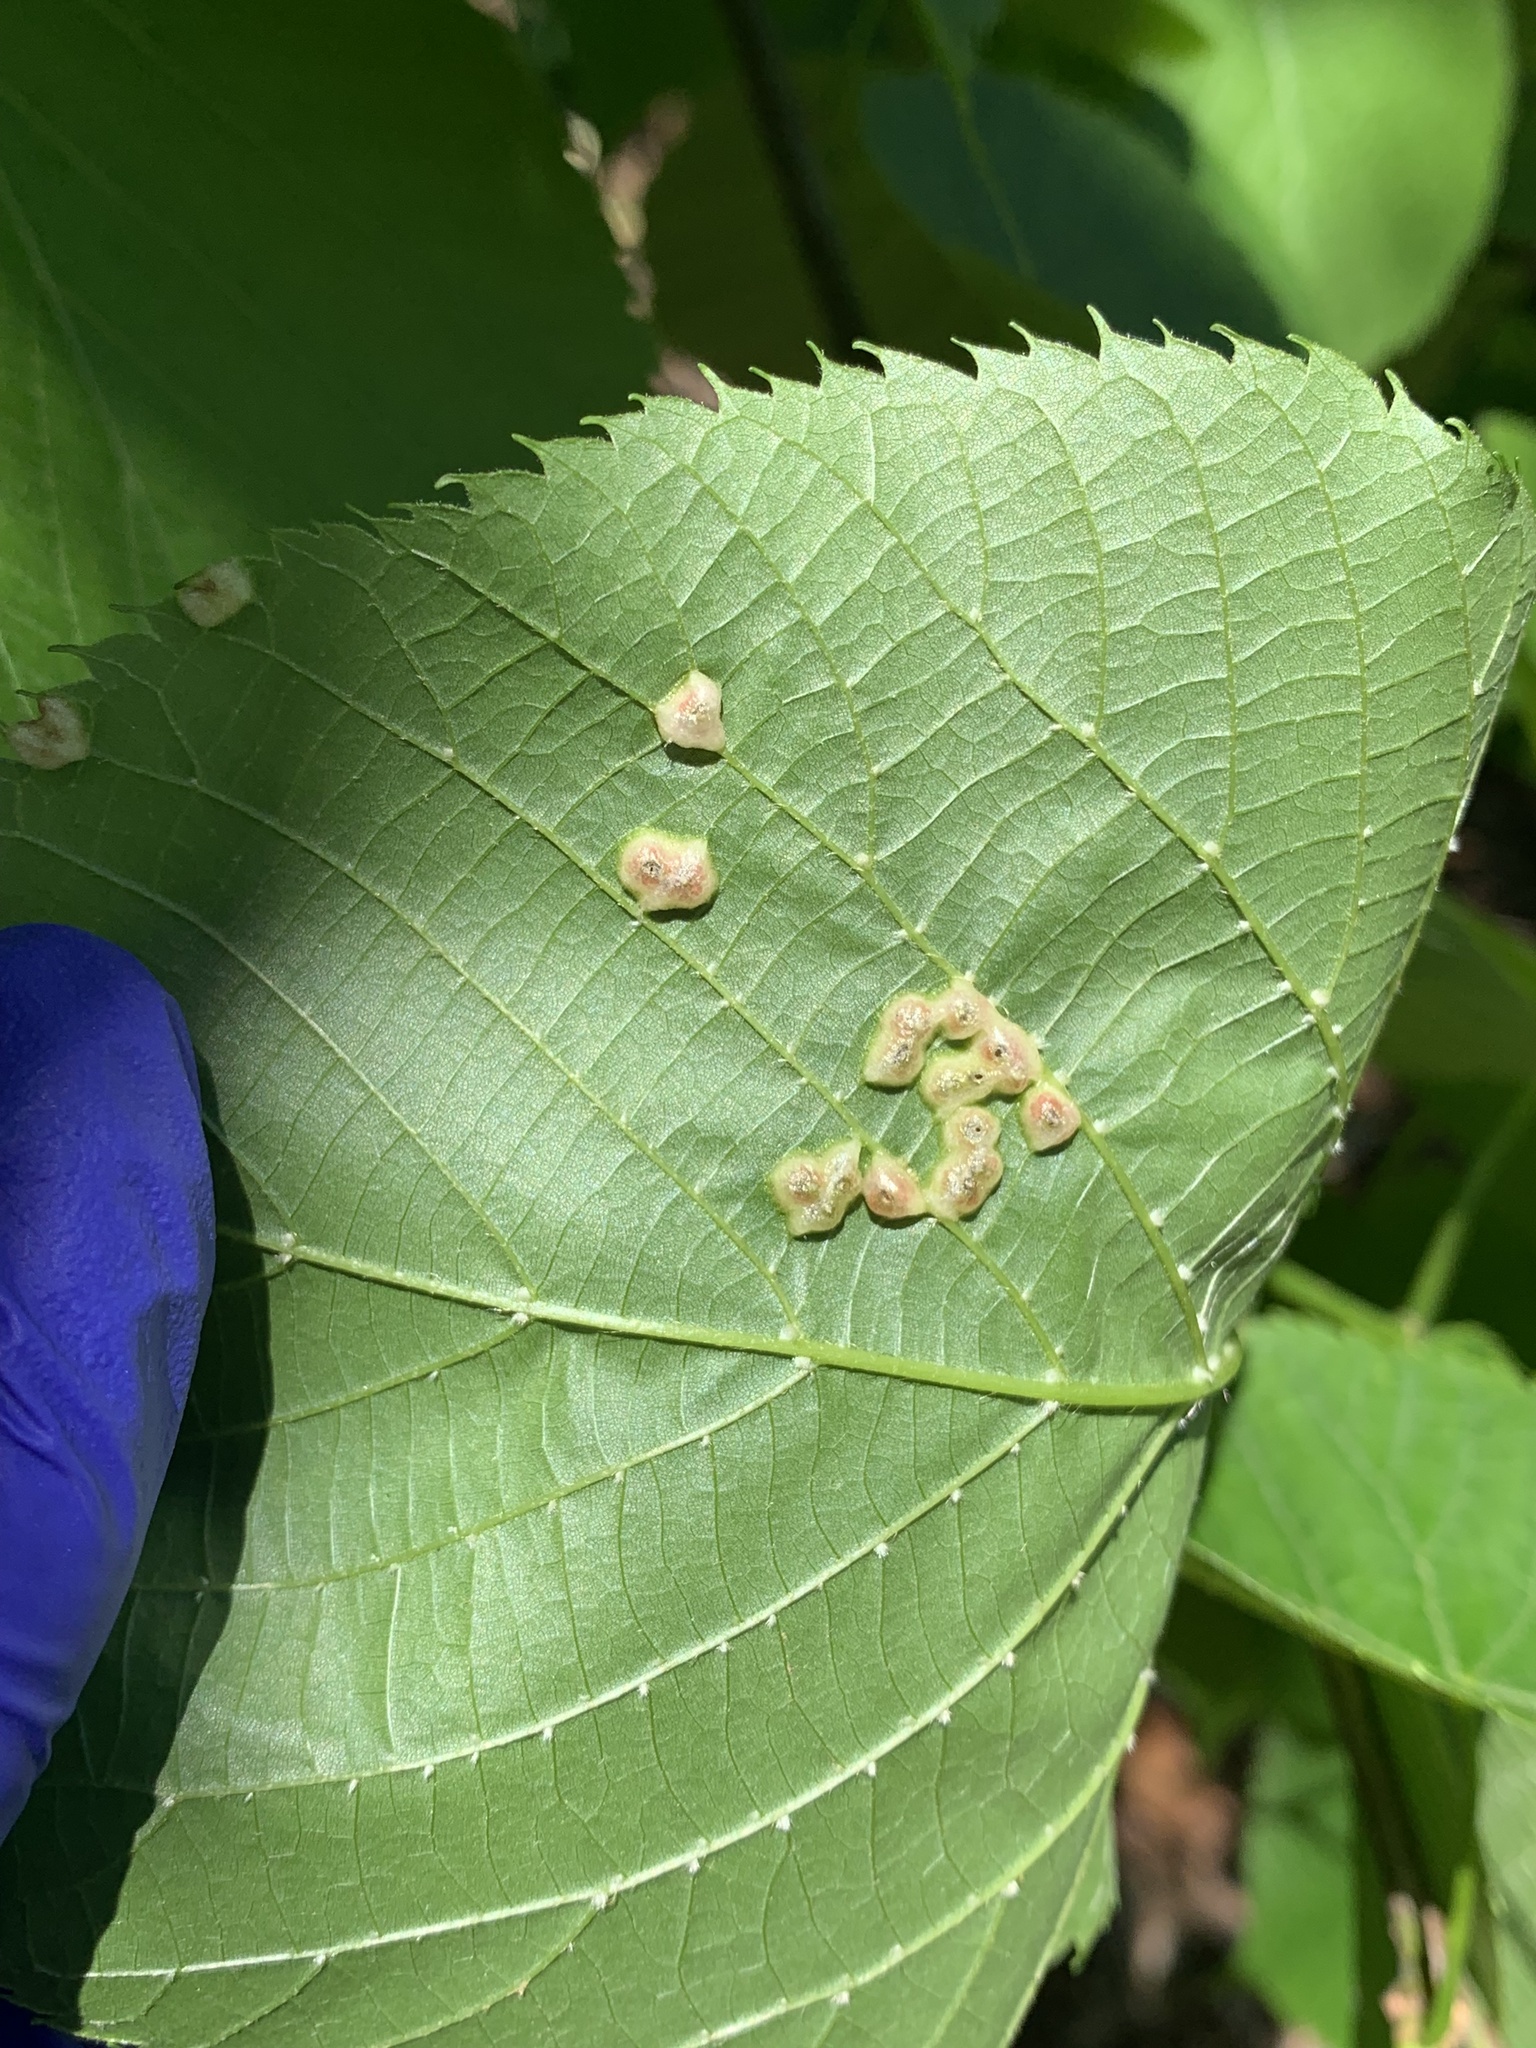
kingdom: Animalia
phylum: Arthropoda
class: Insecta
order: Diptera
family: Cecidomyiidae
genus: Contarinia
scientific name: Contarinia verrucicola
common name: Linden wart gall midge
